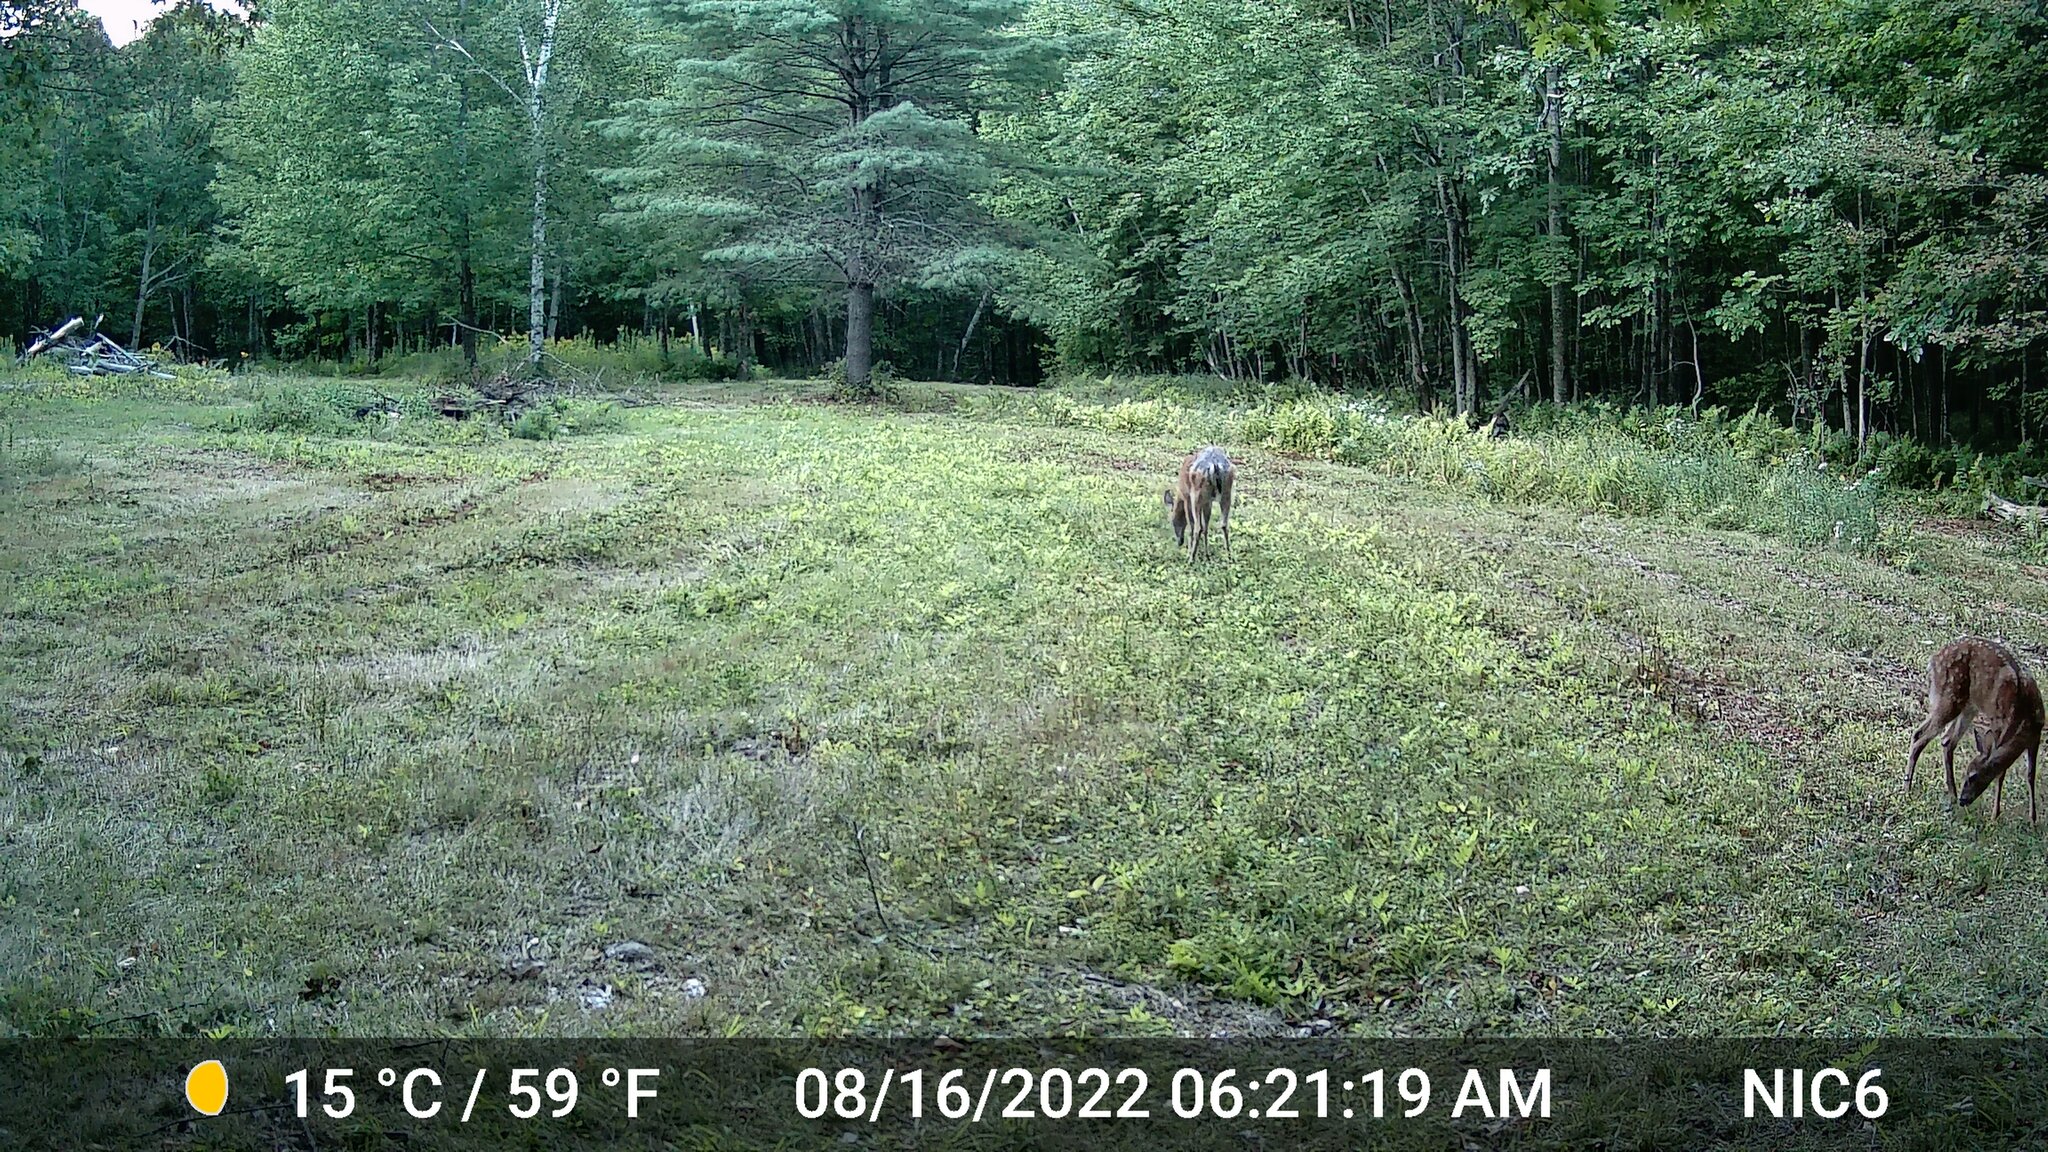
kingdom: Animalia
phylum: Chordata
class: Mammalia
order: Artiodactyla
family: Cervidae
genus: Odocoileus
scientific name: Odocoileus virginianus
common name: White-tailed deer
